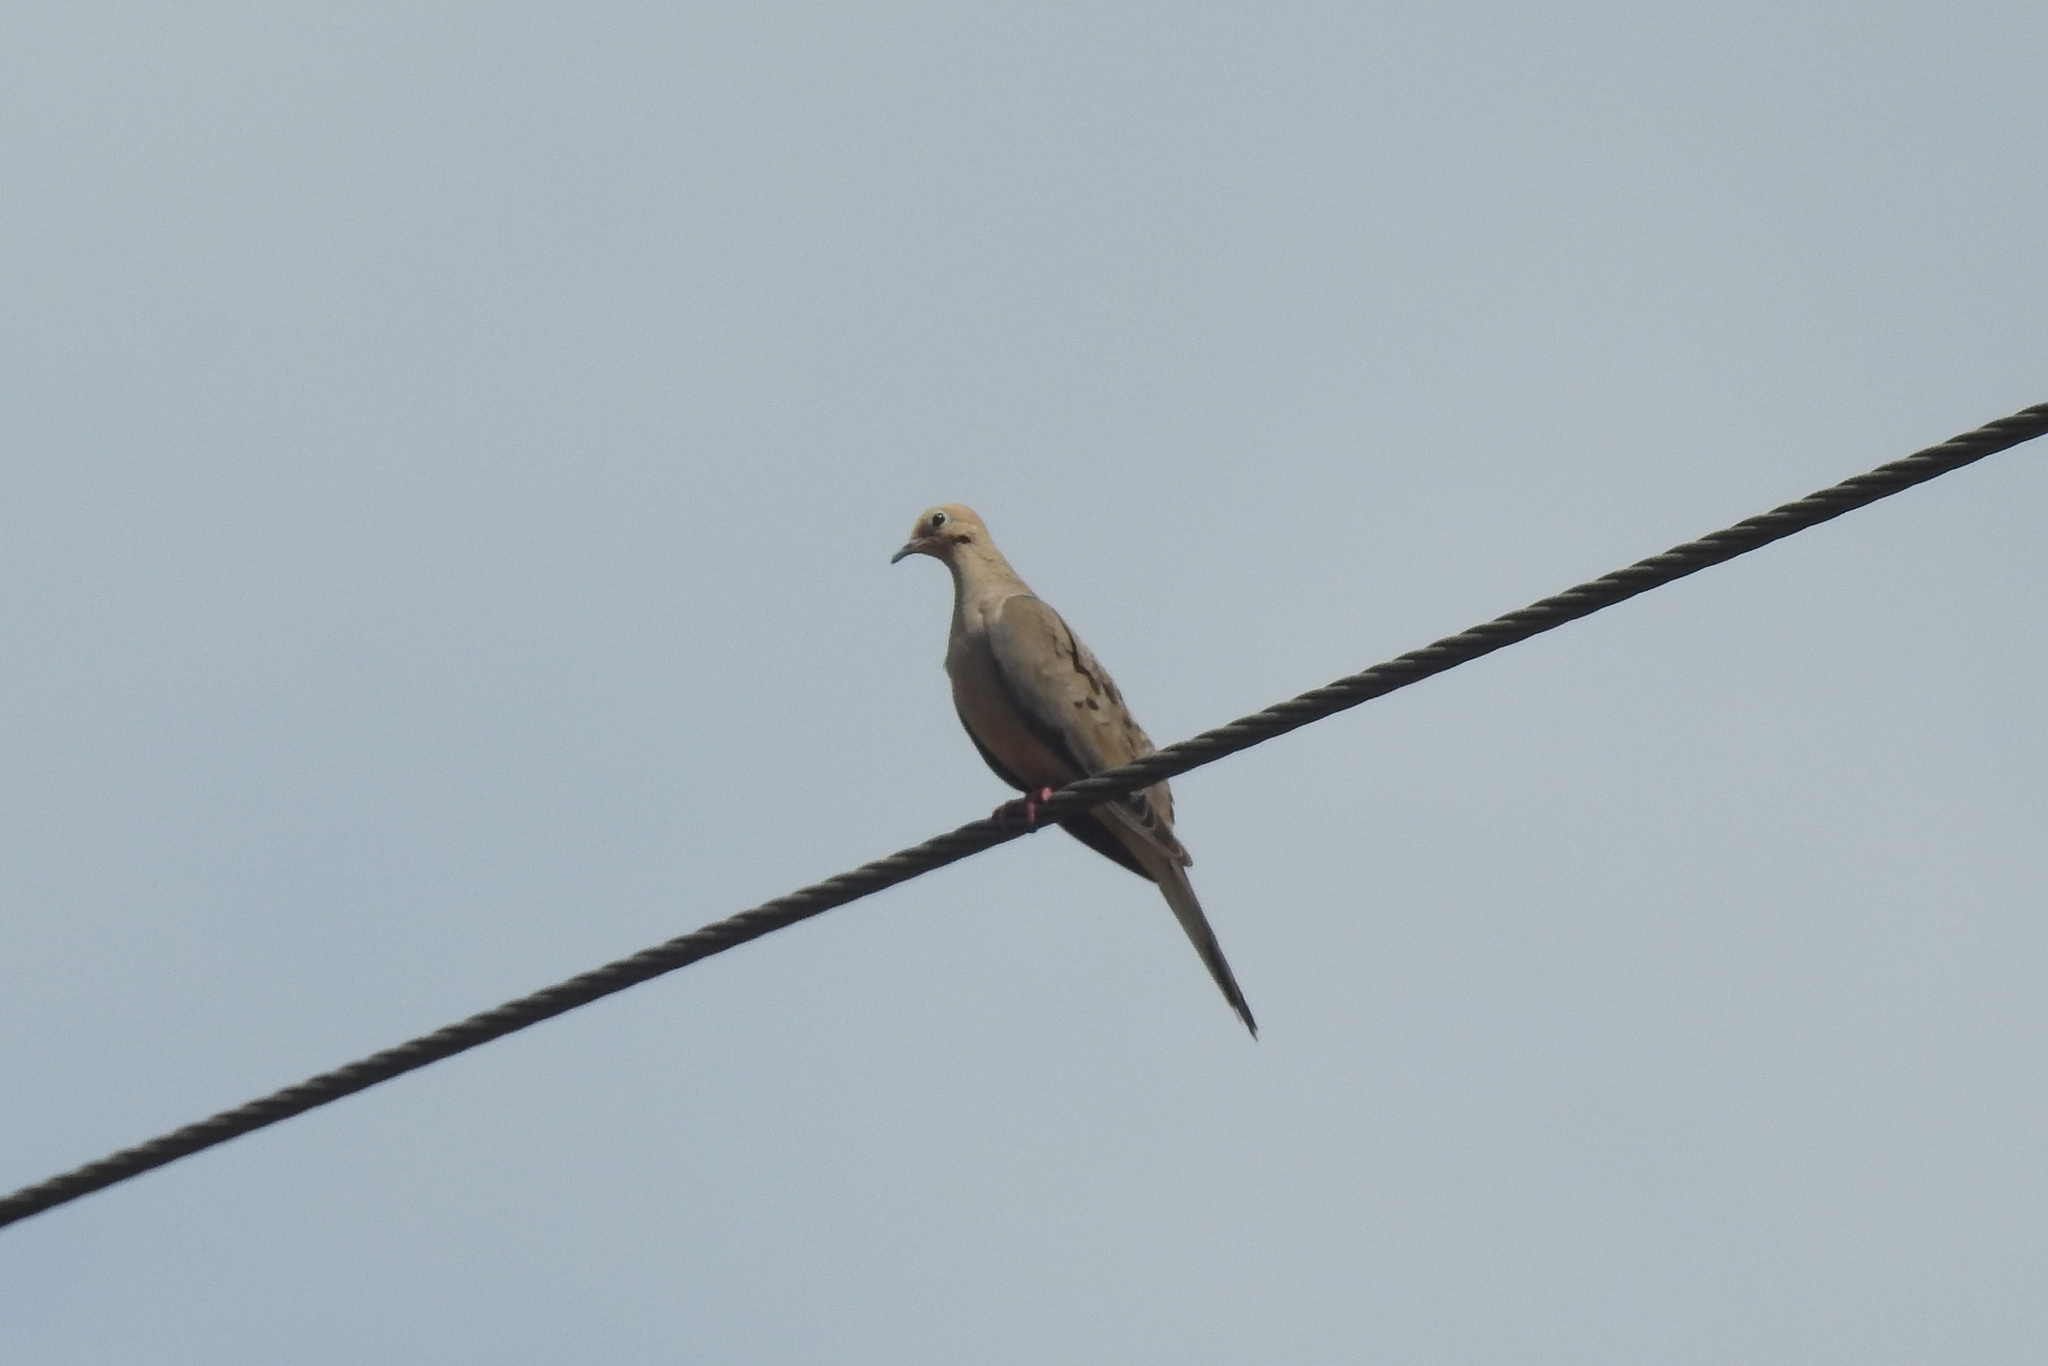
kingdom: Animalia
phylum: Chordata
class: Aves
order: Columbiformes
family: Columbidae
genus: Zenaida
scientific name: Zenaida macroura
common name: Mourning dove
